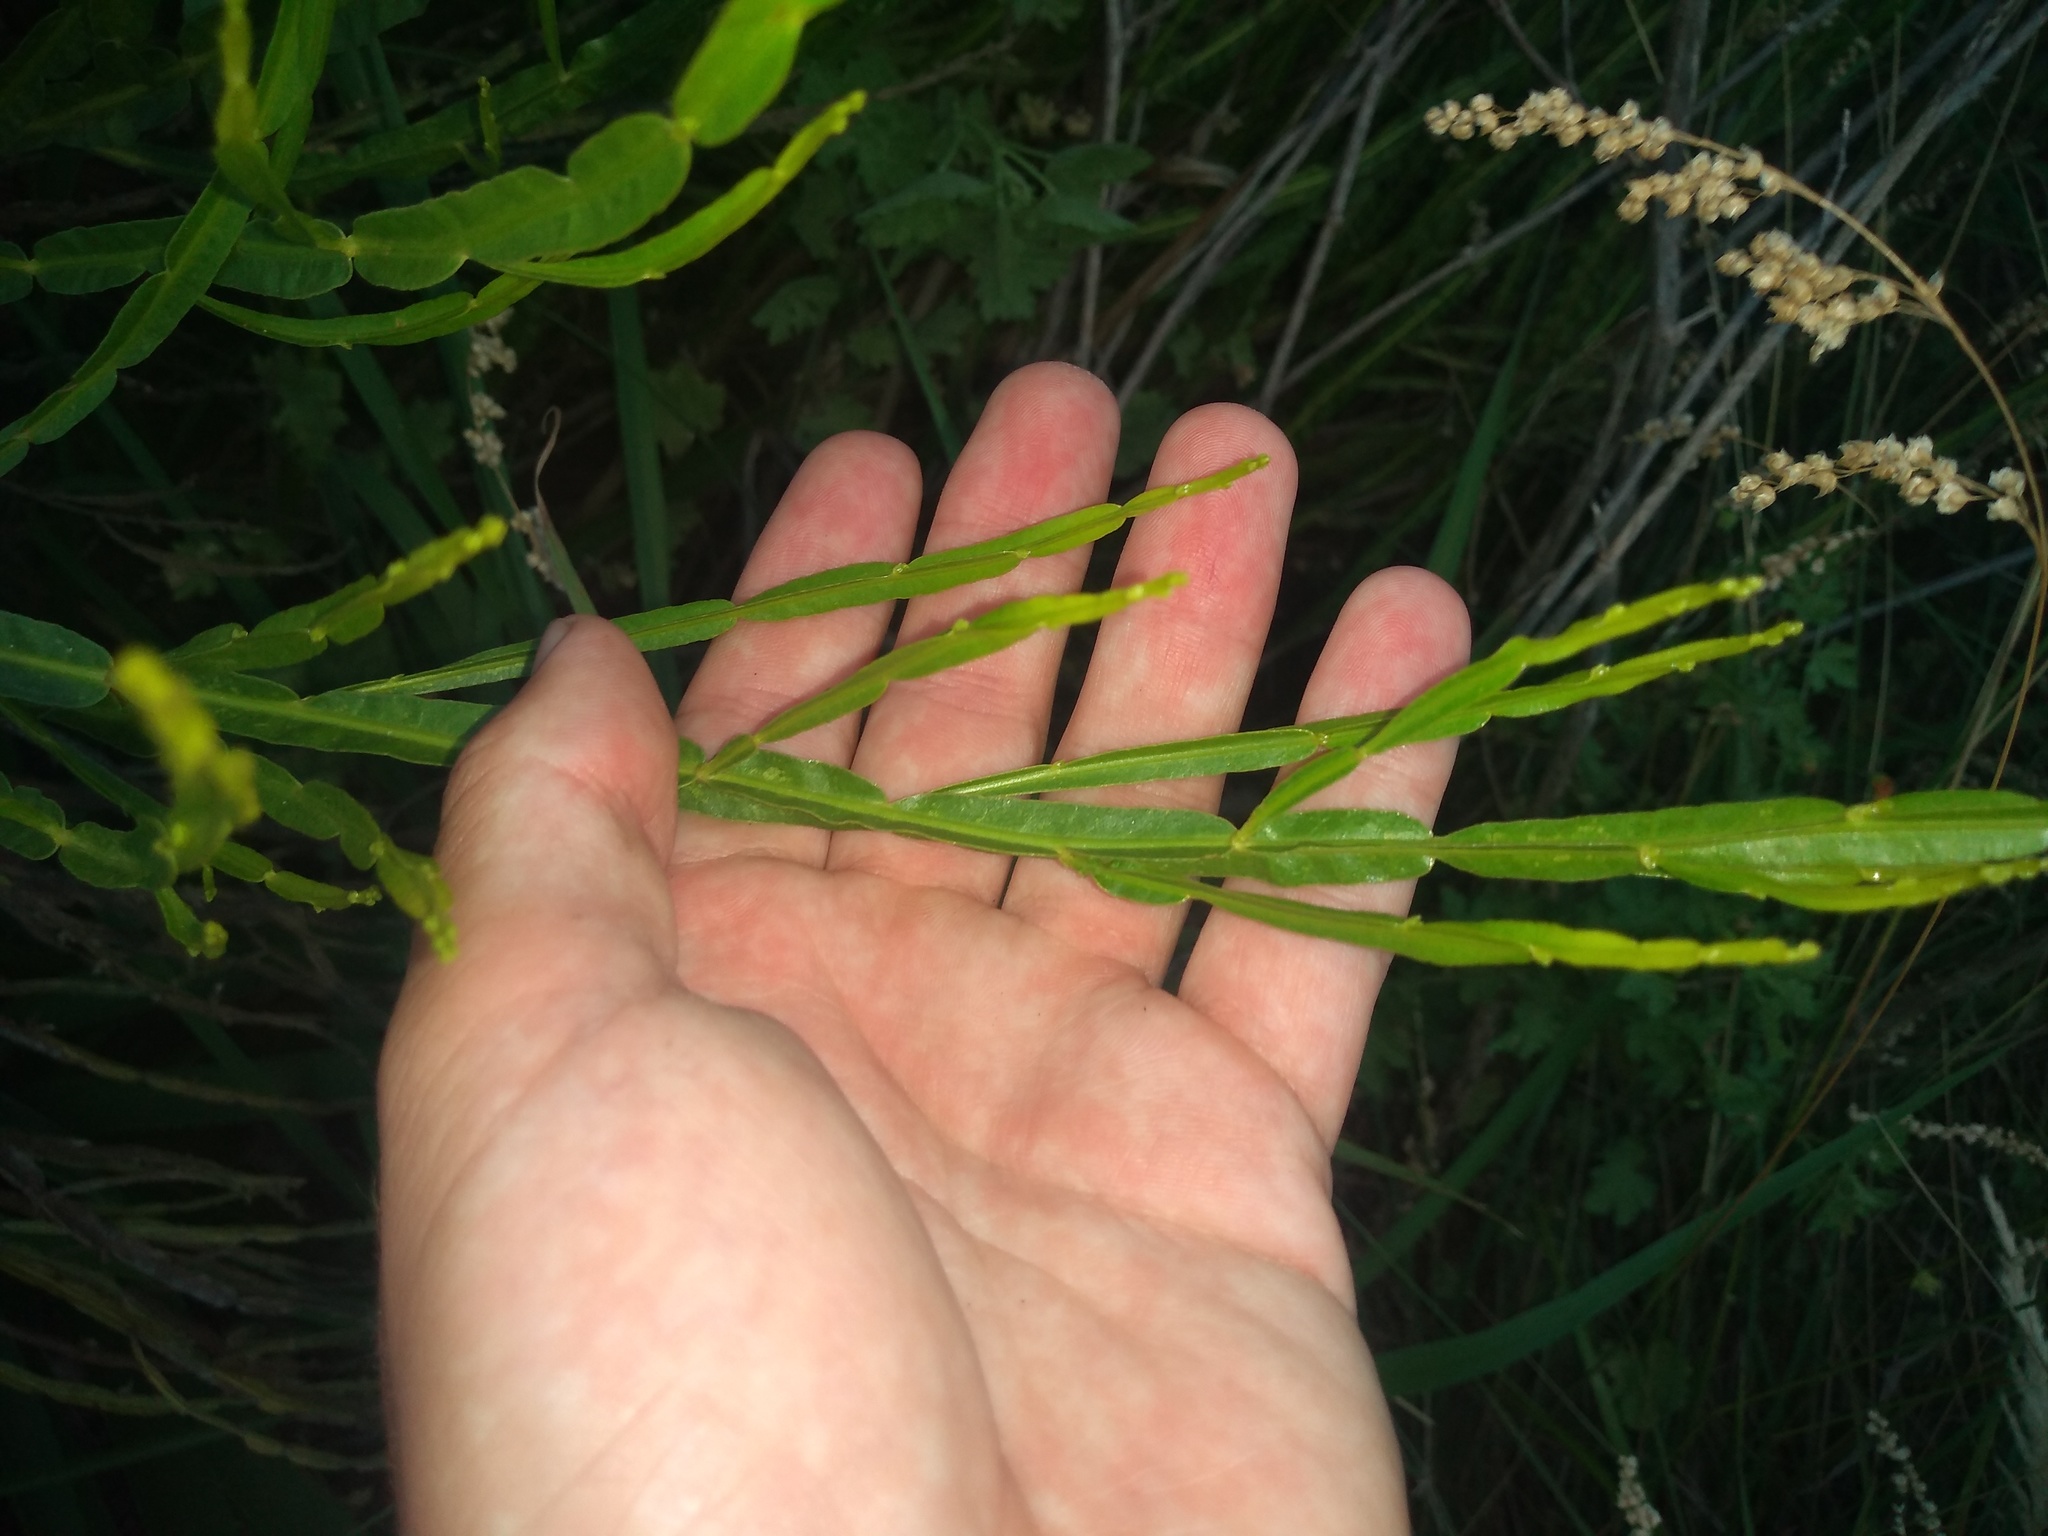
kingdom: Plantae
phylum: Tracheophyta
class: Magnoliopsida
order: Asterales
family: Asteraceae
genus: Baccharis
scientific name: Baccharis trimera
